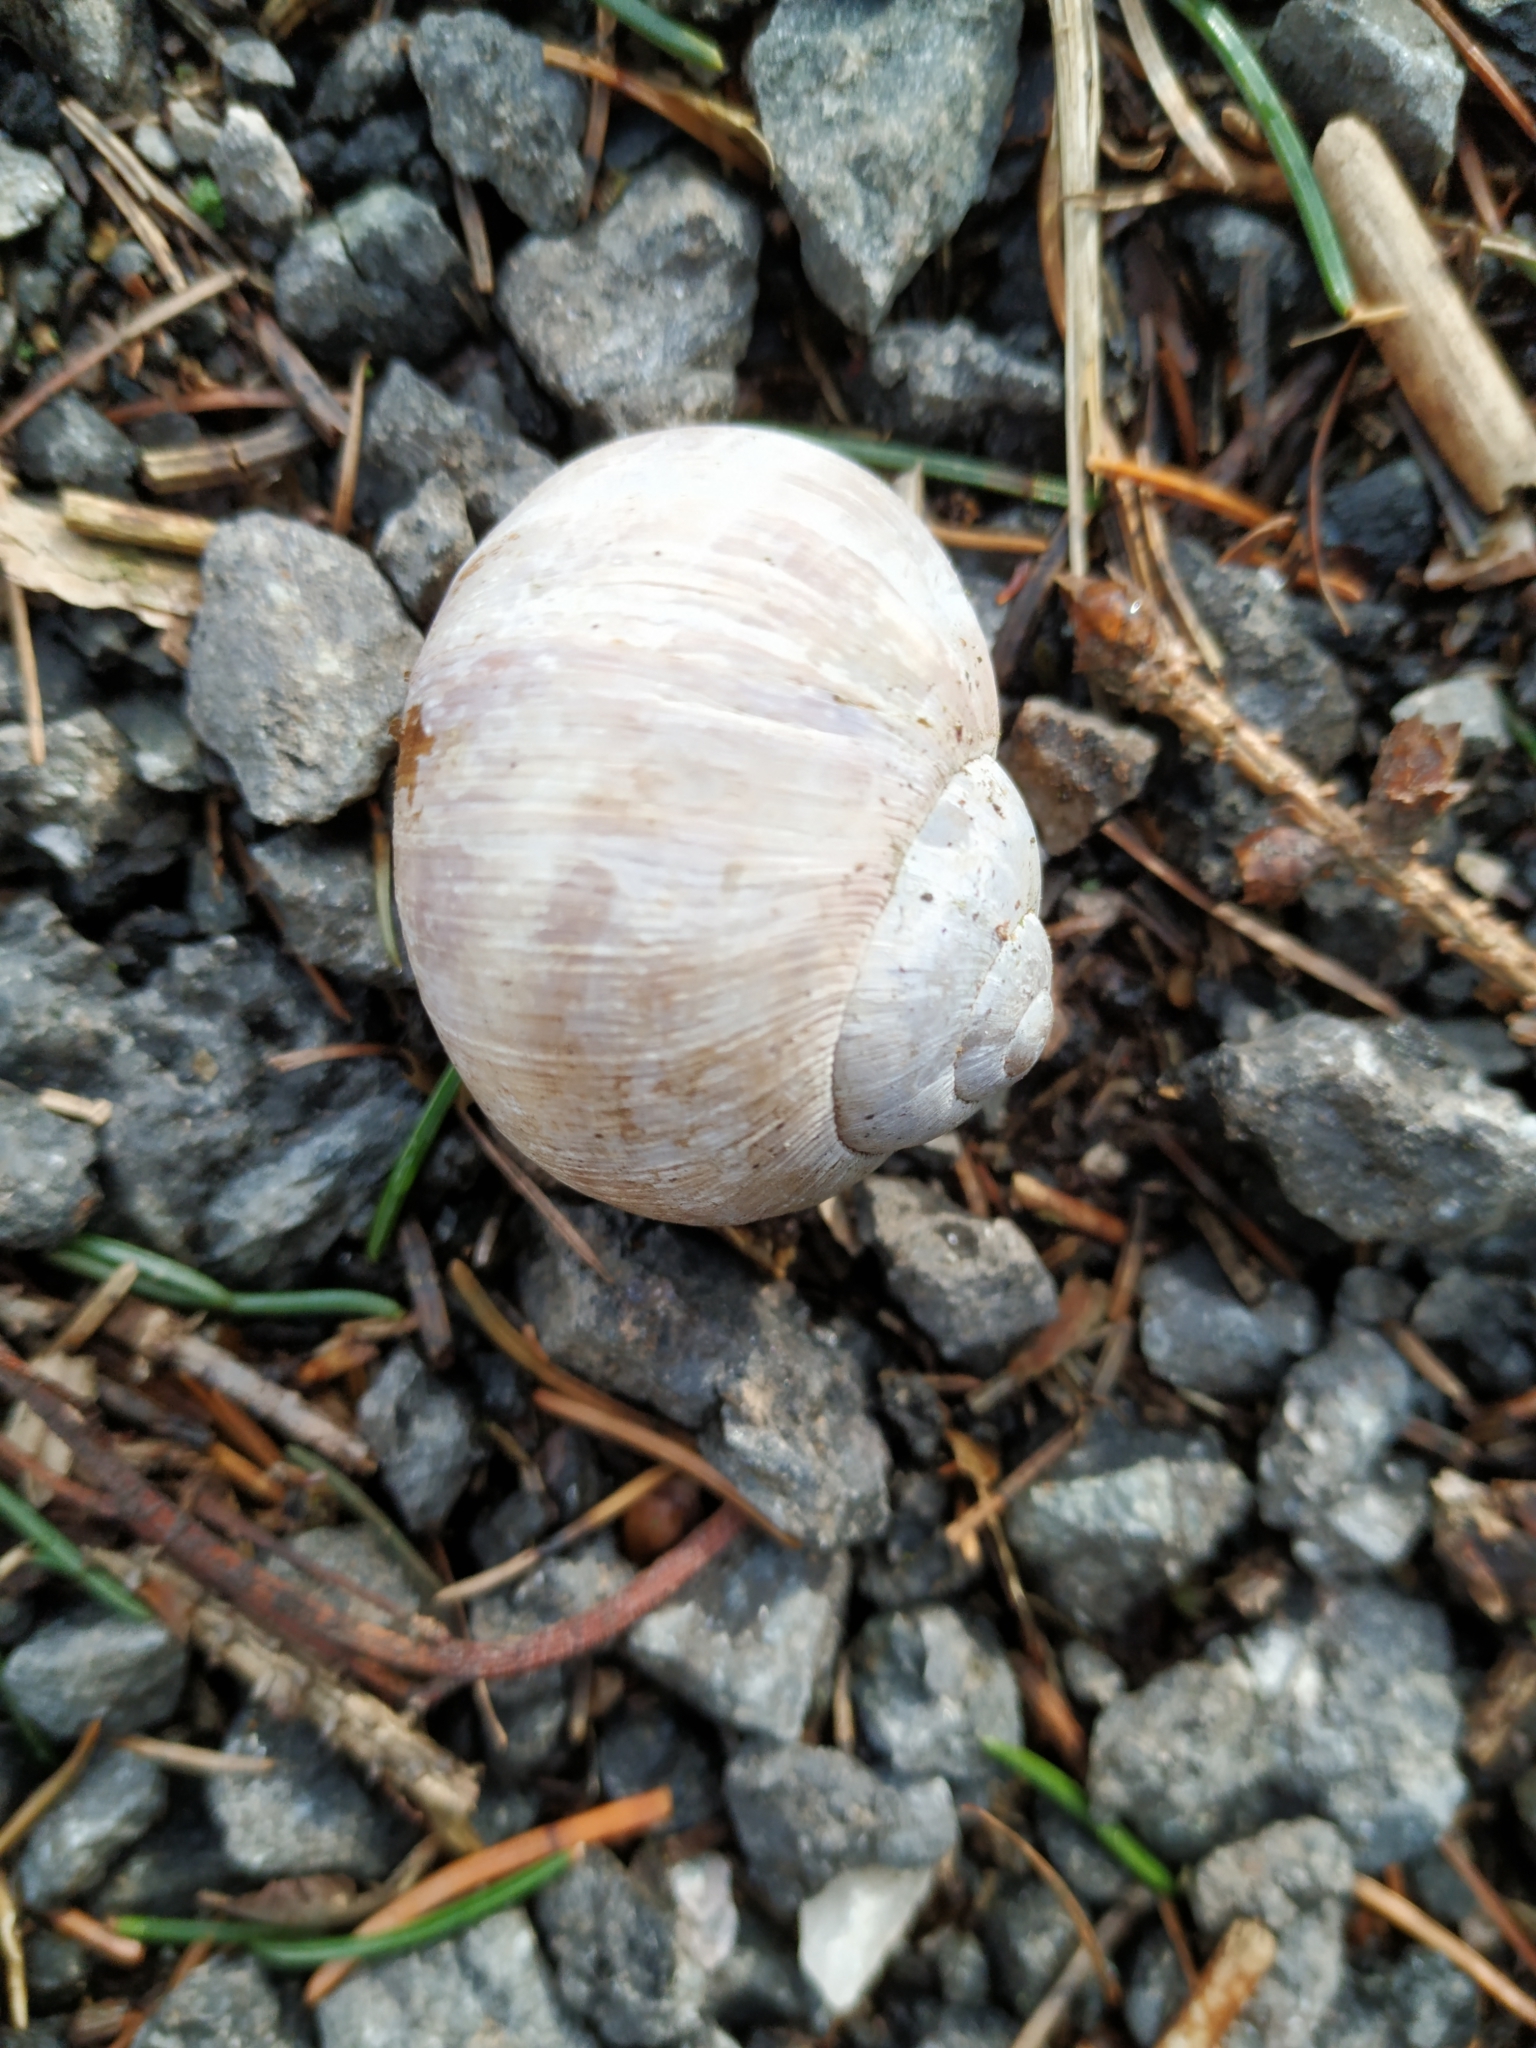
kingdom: Animalia
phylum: Mollusca
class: Gastropoda
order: Stylommatophora
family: Helicidae
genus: Helix
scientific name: Helix pomatia
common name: Roman snail
